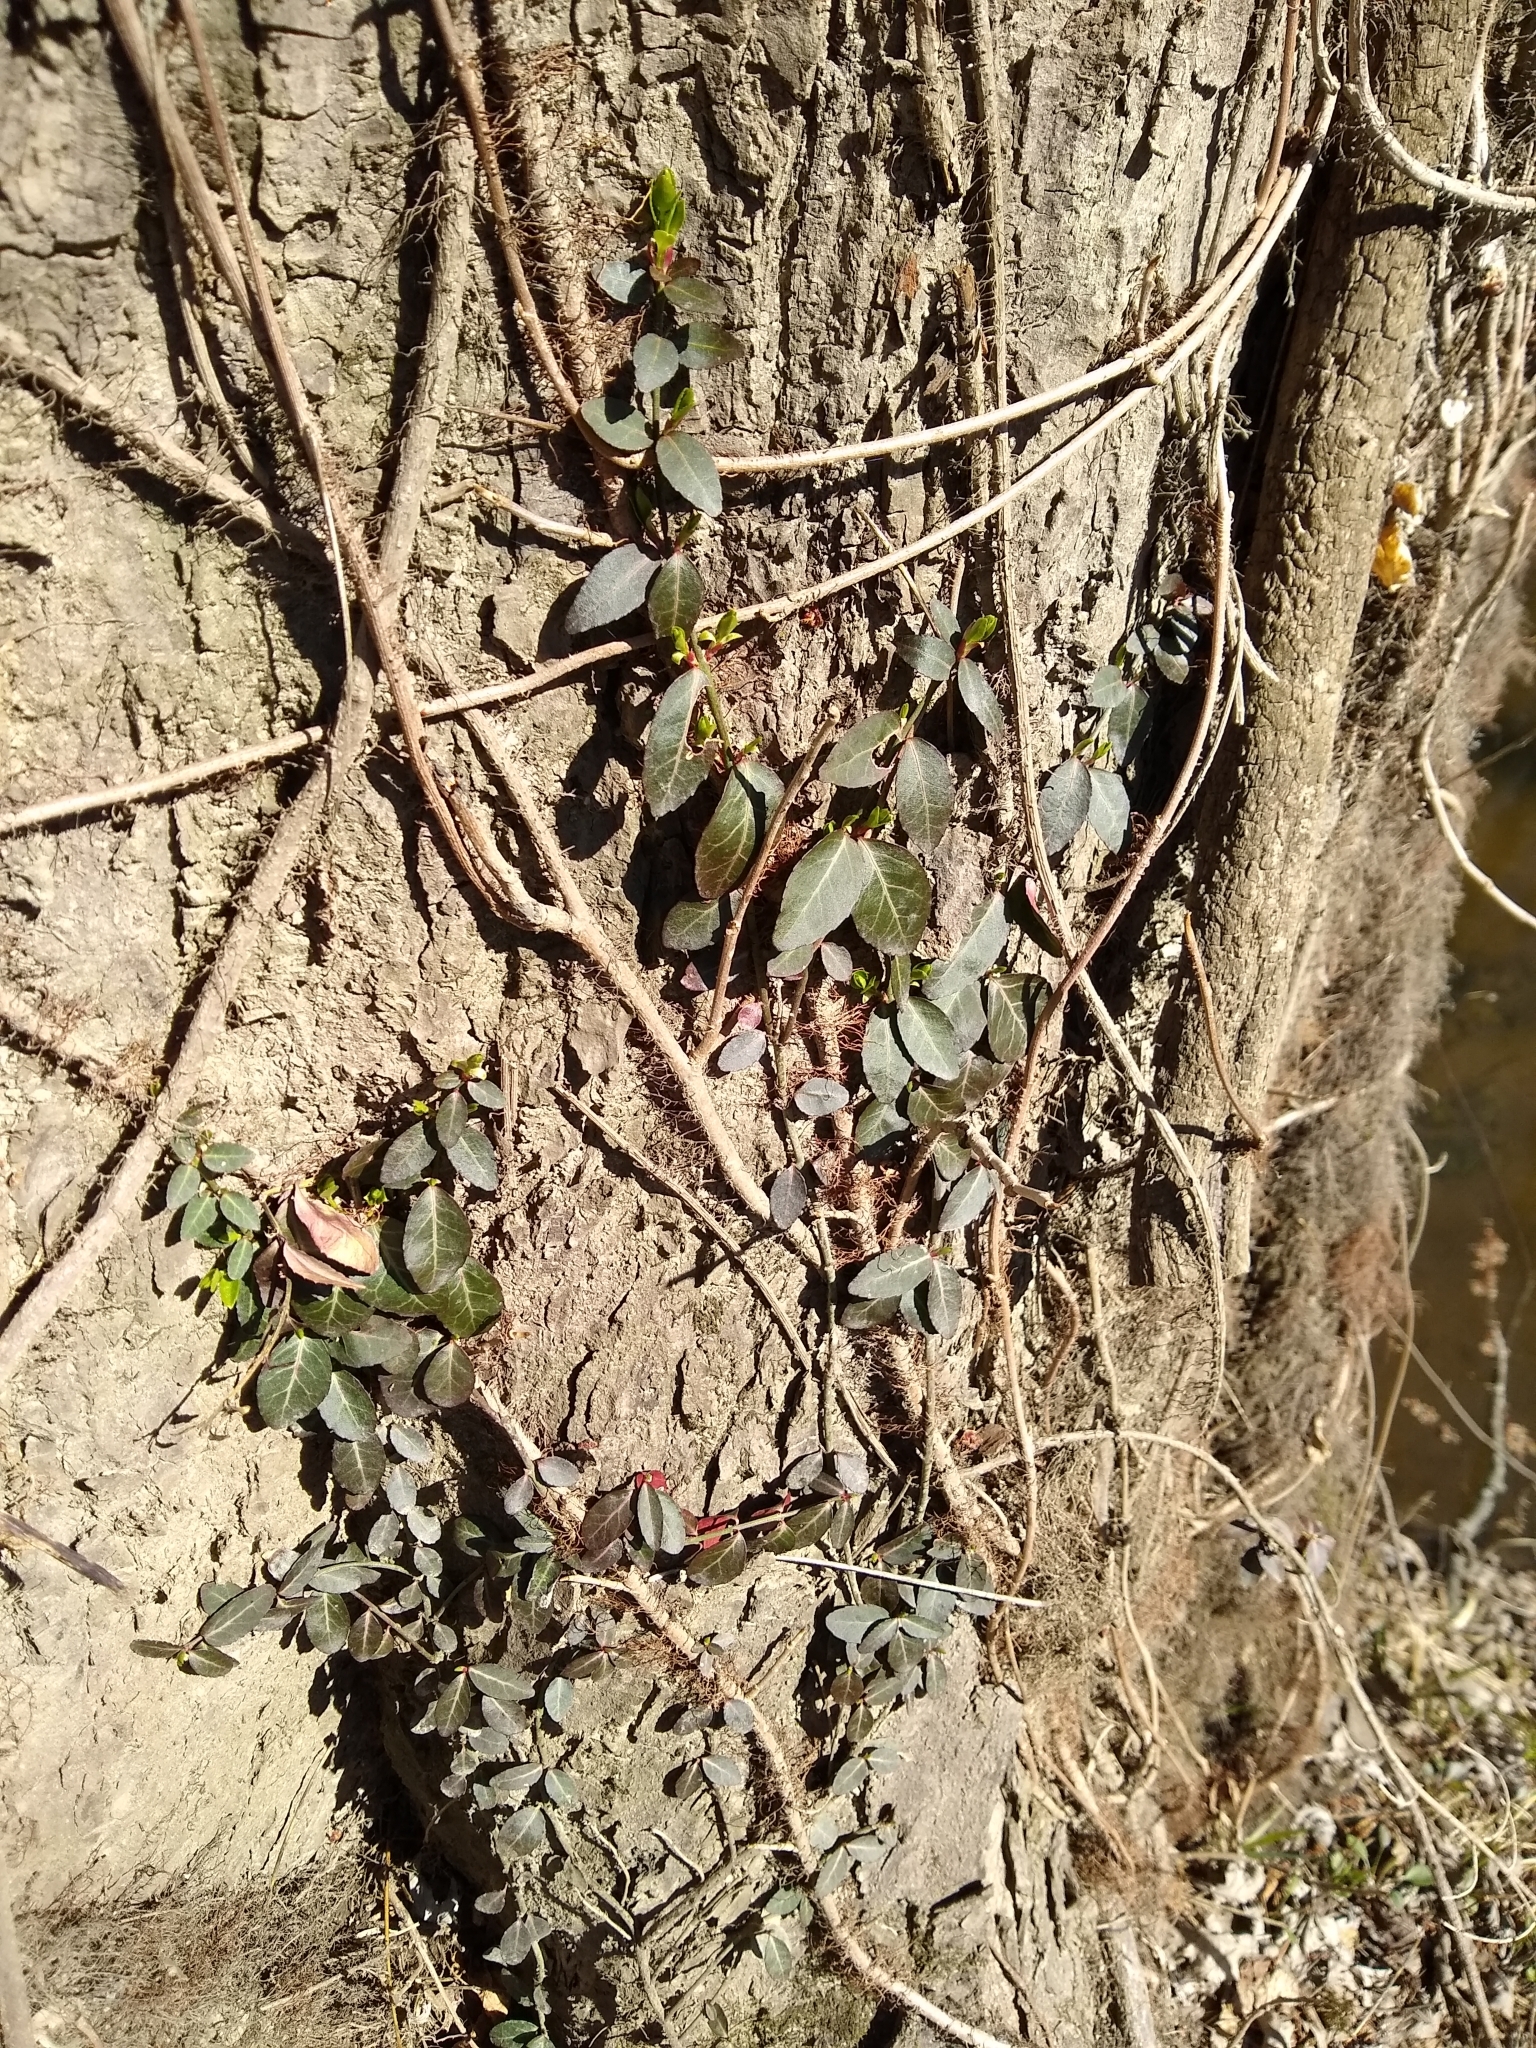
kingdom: Plantae
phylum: Tracheophyta
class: Magnoliopsida
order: Celastrales
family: Celastraceae
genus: Euonymus
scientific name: Euonymus fortunei
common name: Climbing euonymus
